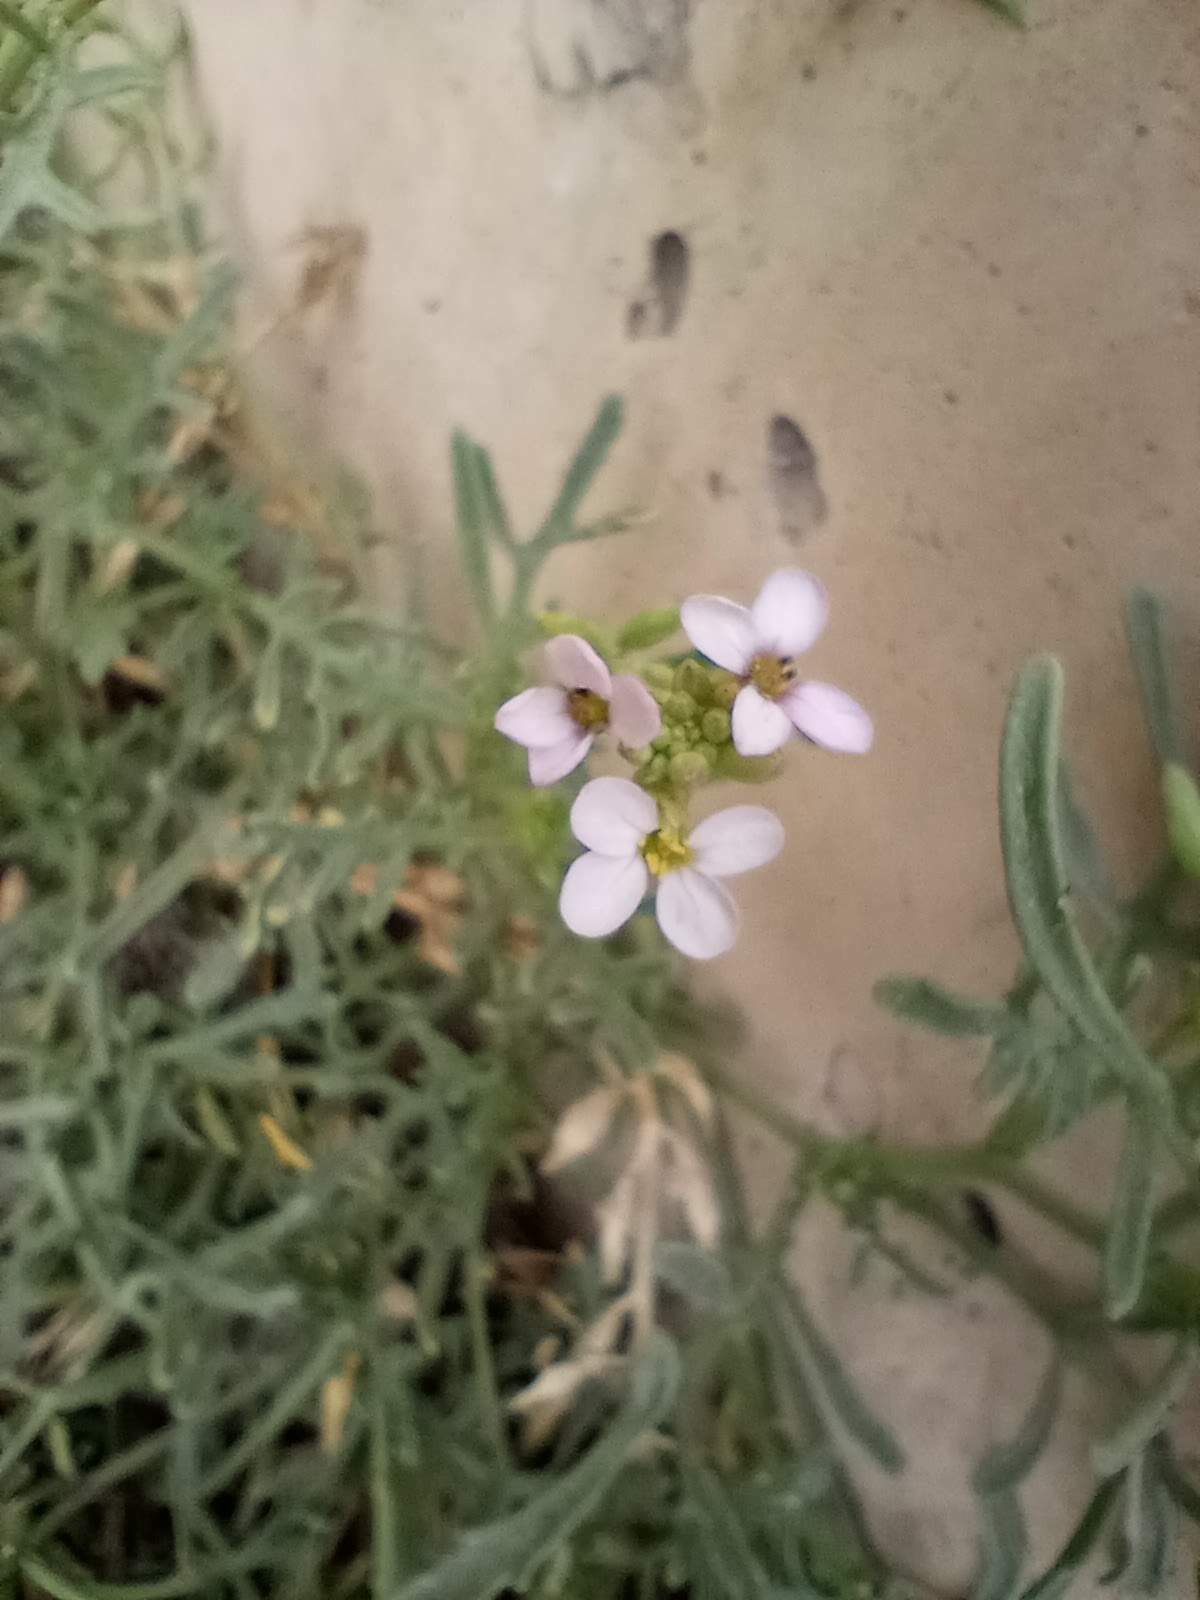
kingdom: Plantae
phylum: Tracheophyta
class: Magnoliopsida
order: Brassicales
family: Brassicaceae
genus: Cakile
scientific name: Cakile maritima
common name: Sea rocket
